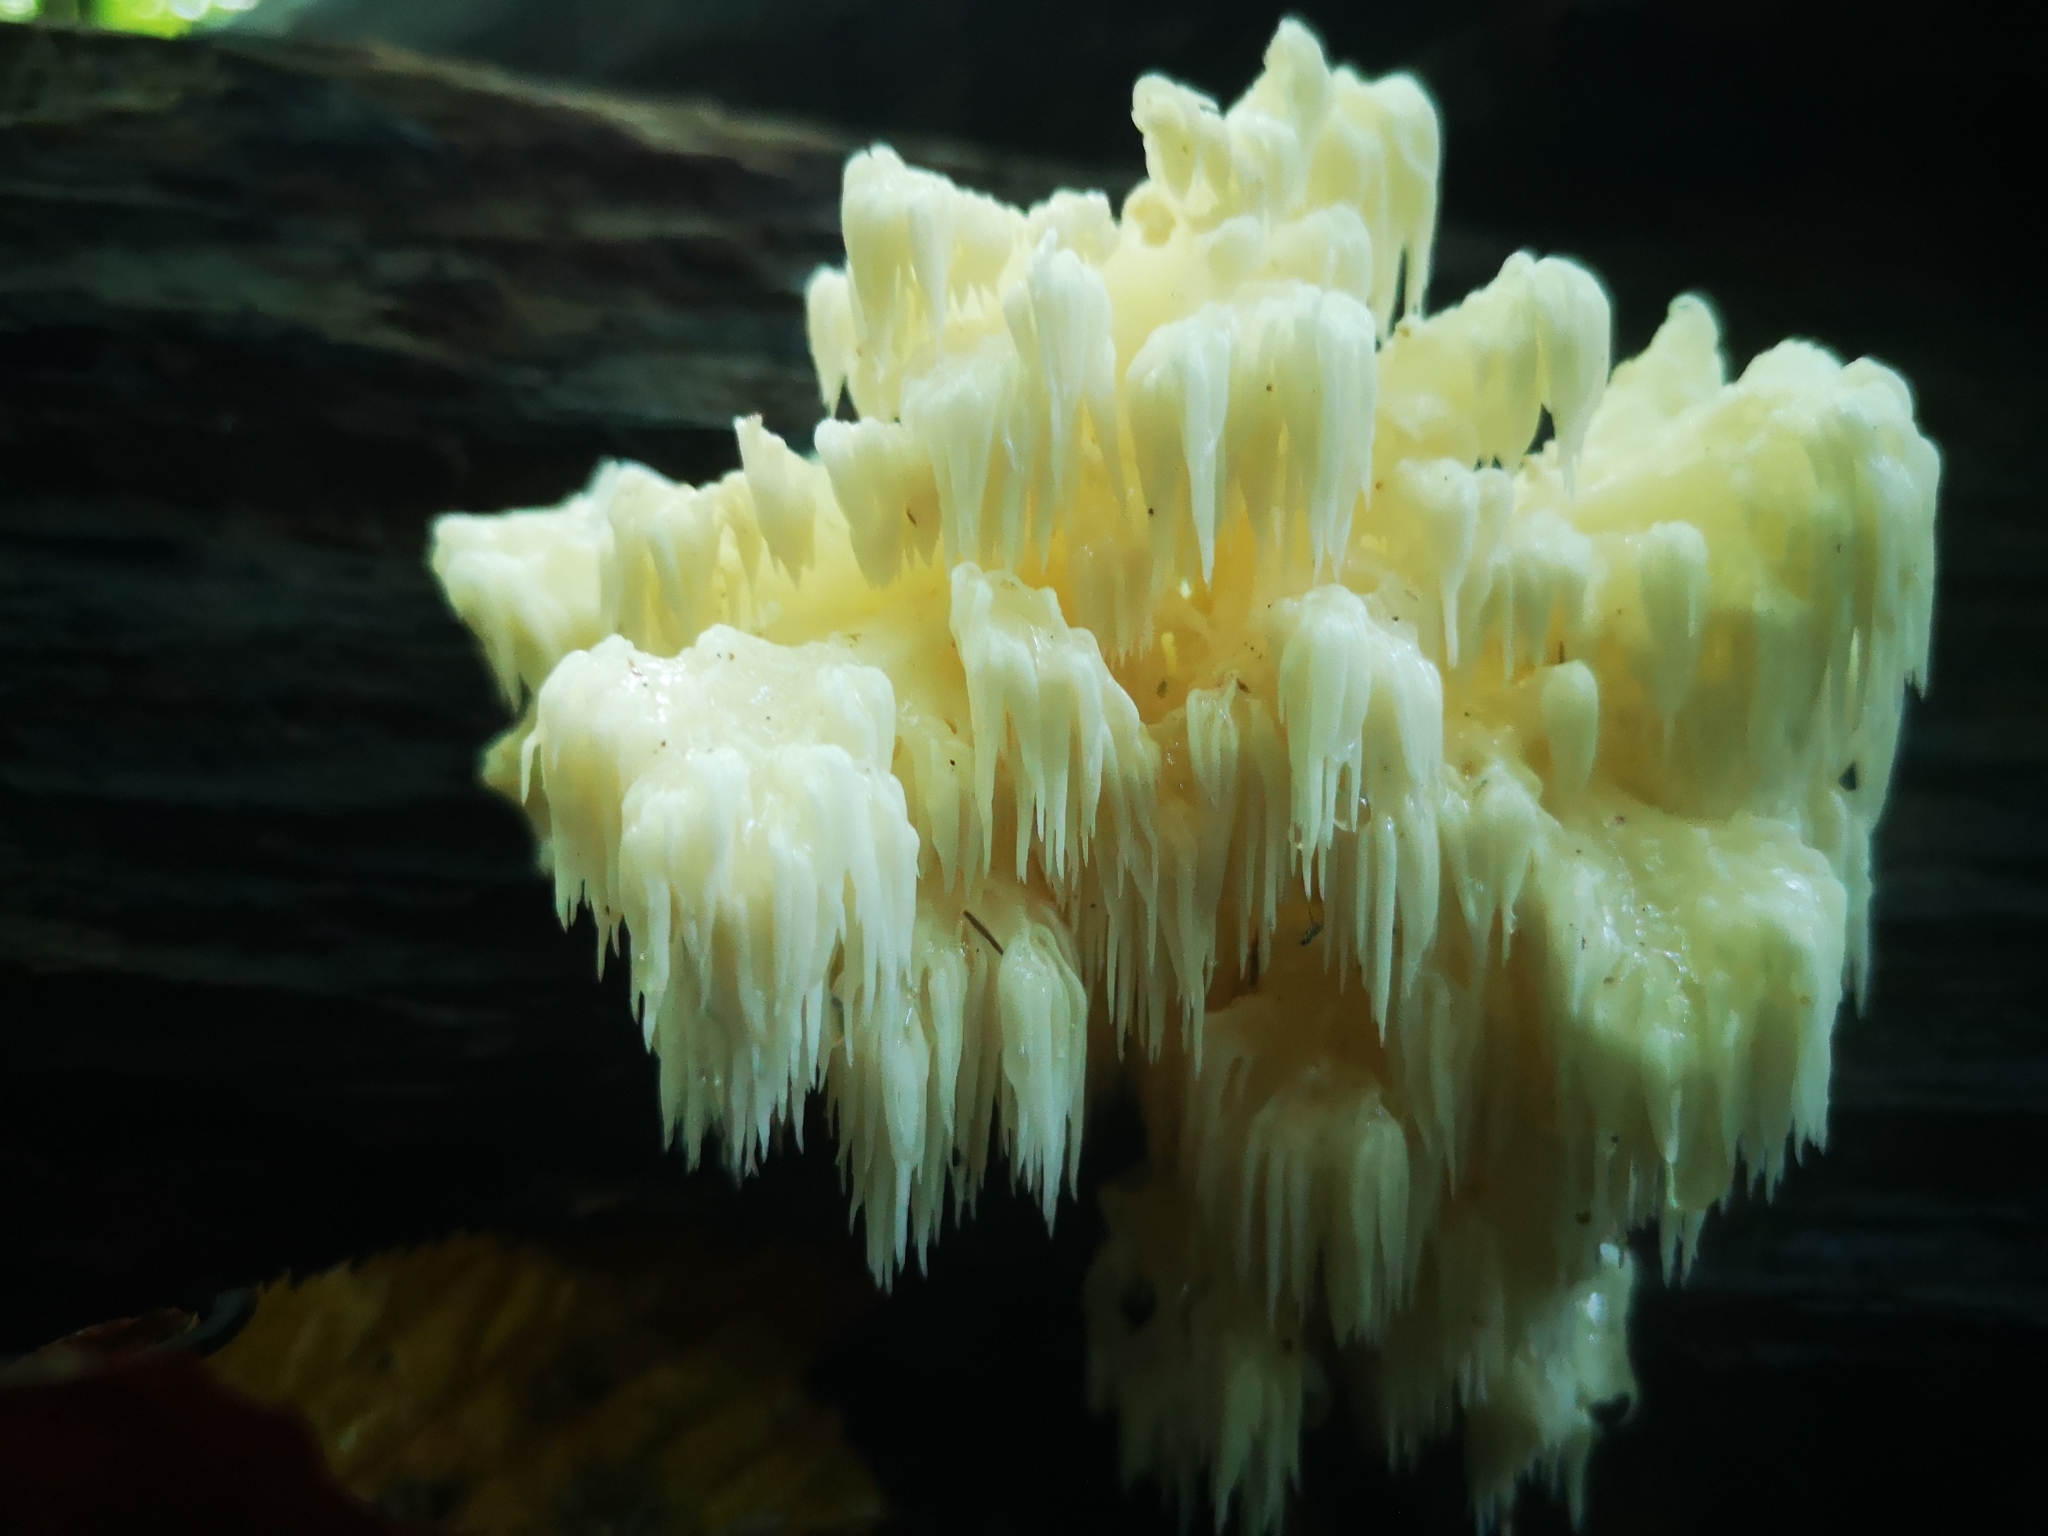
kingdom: Fungi
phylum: Basidiomycota
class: Agaricomycetes
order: Russulales
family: Hericiaceae
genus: Hericium
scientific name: Hericium americanum
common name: Bear's head tooth
